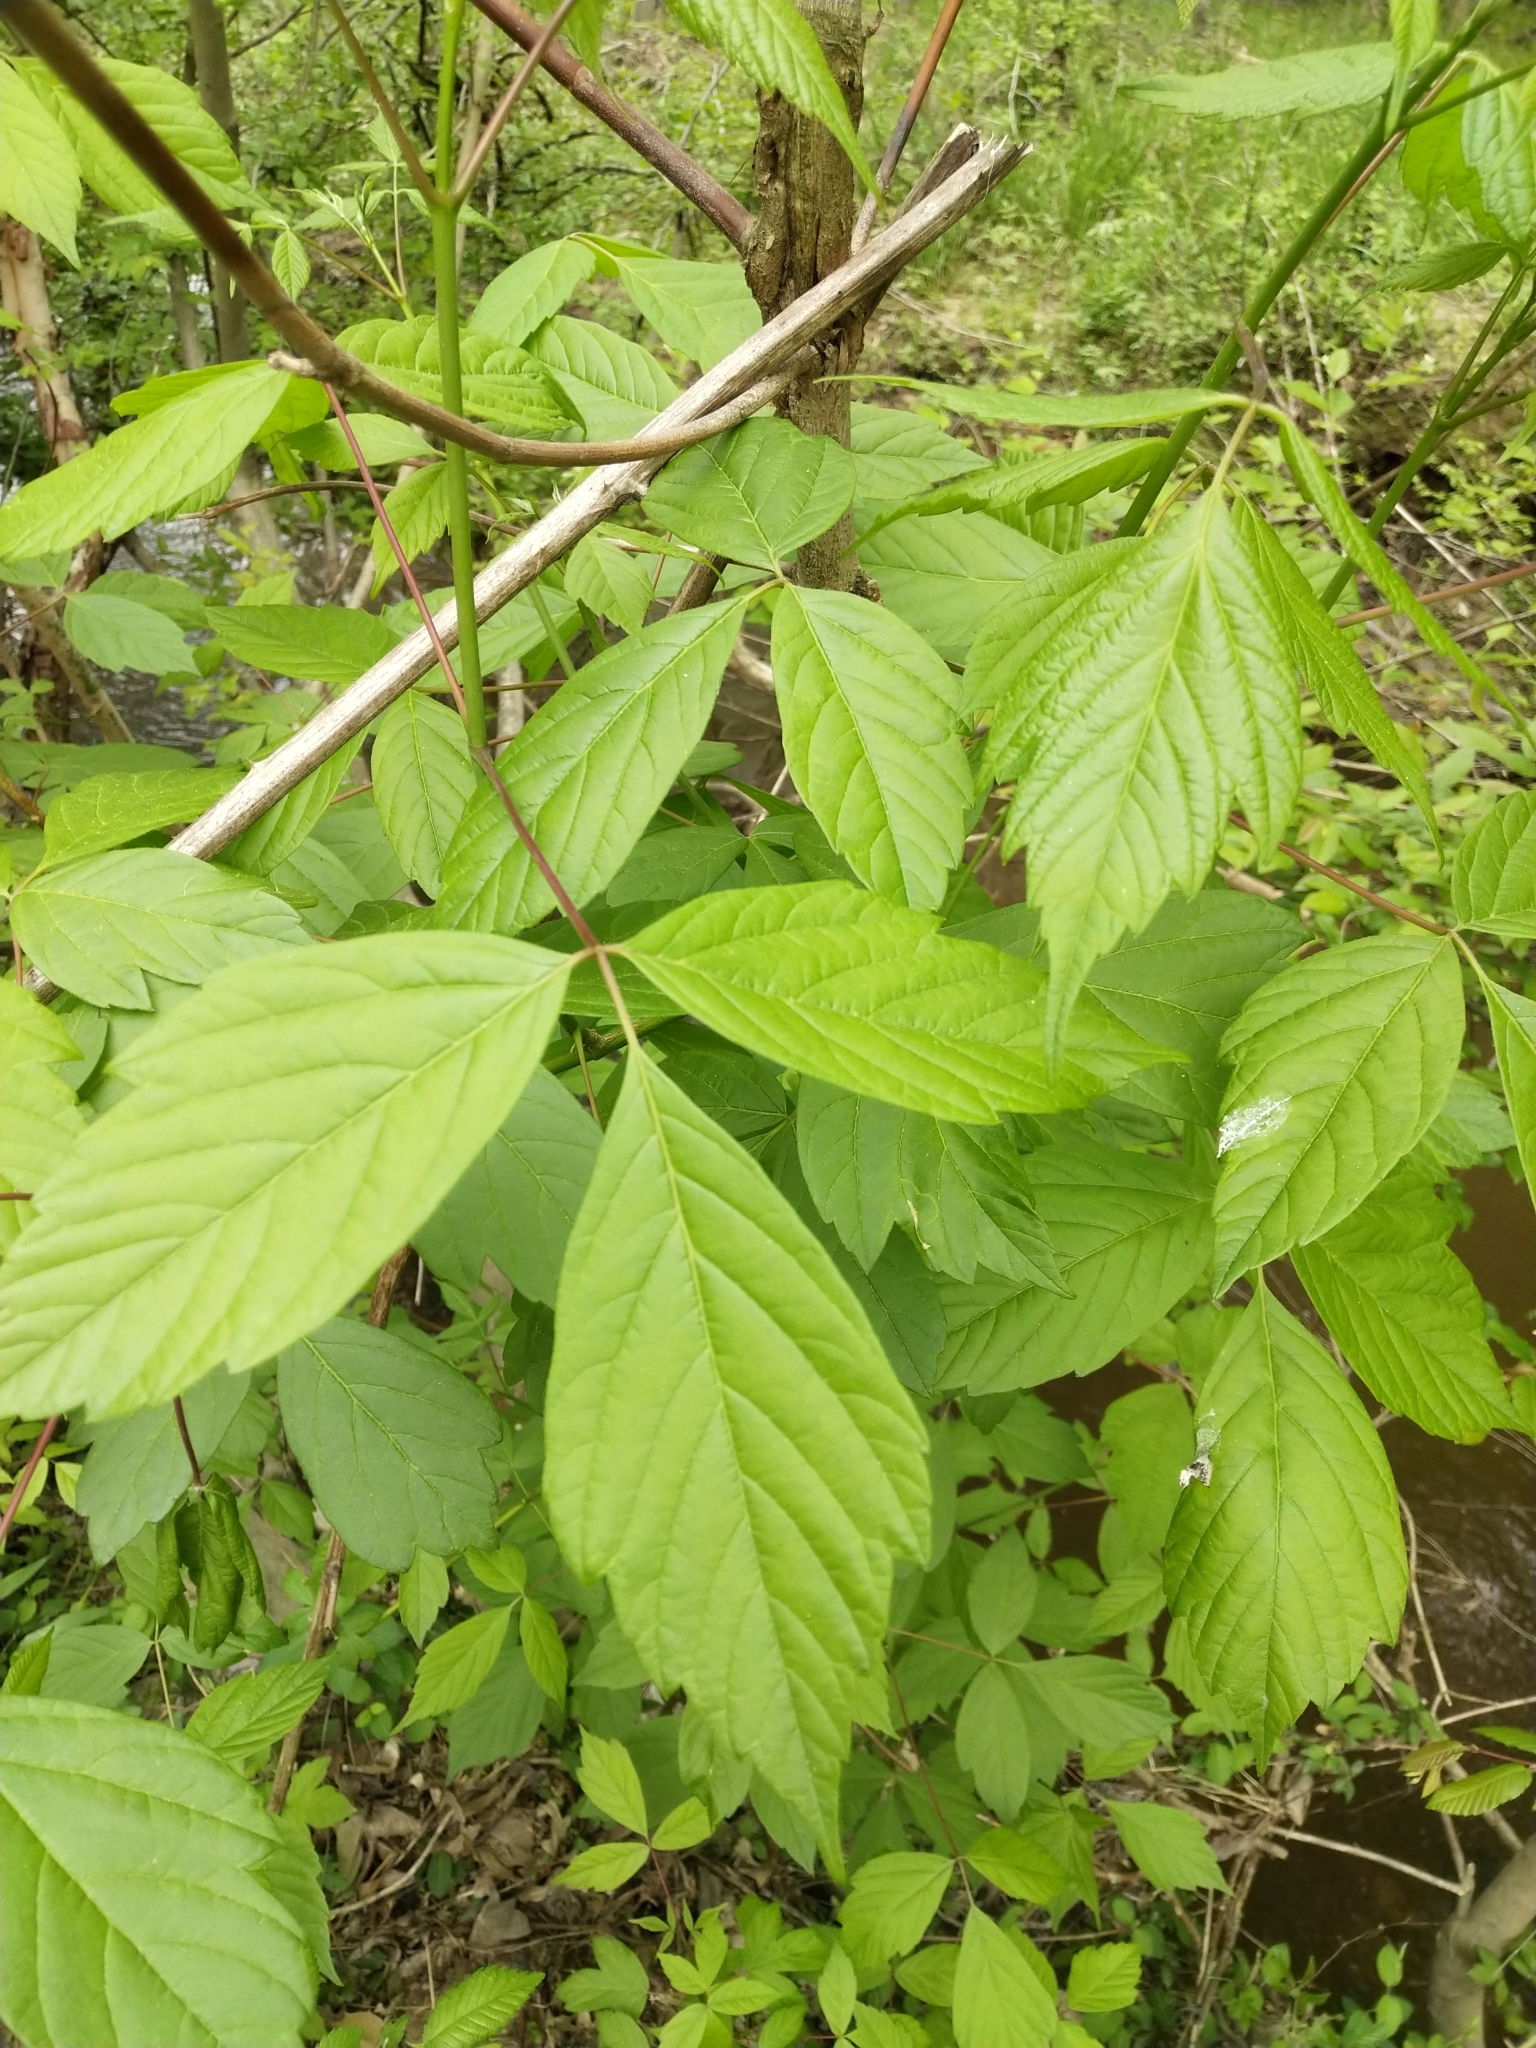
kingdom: Plantae
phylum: Tracheophyta
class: Magnoliopsida
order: Sapindales
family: Sapindaceae
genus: Acer
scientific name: Acer negundo
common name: Ashleaf maple
